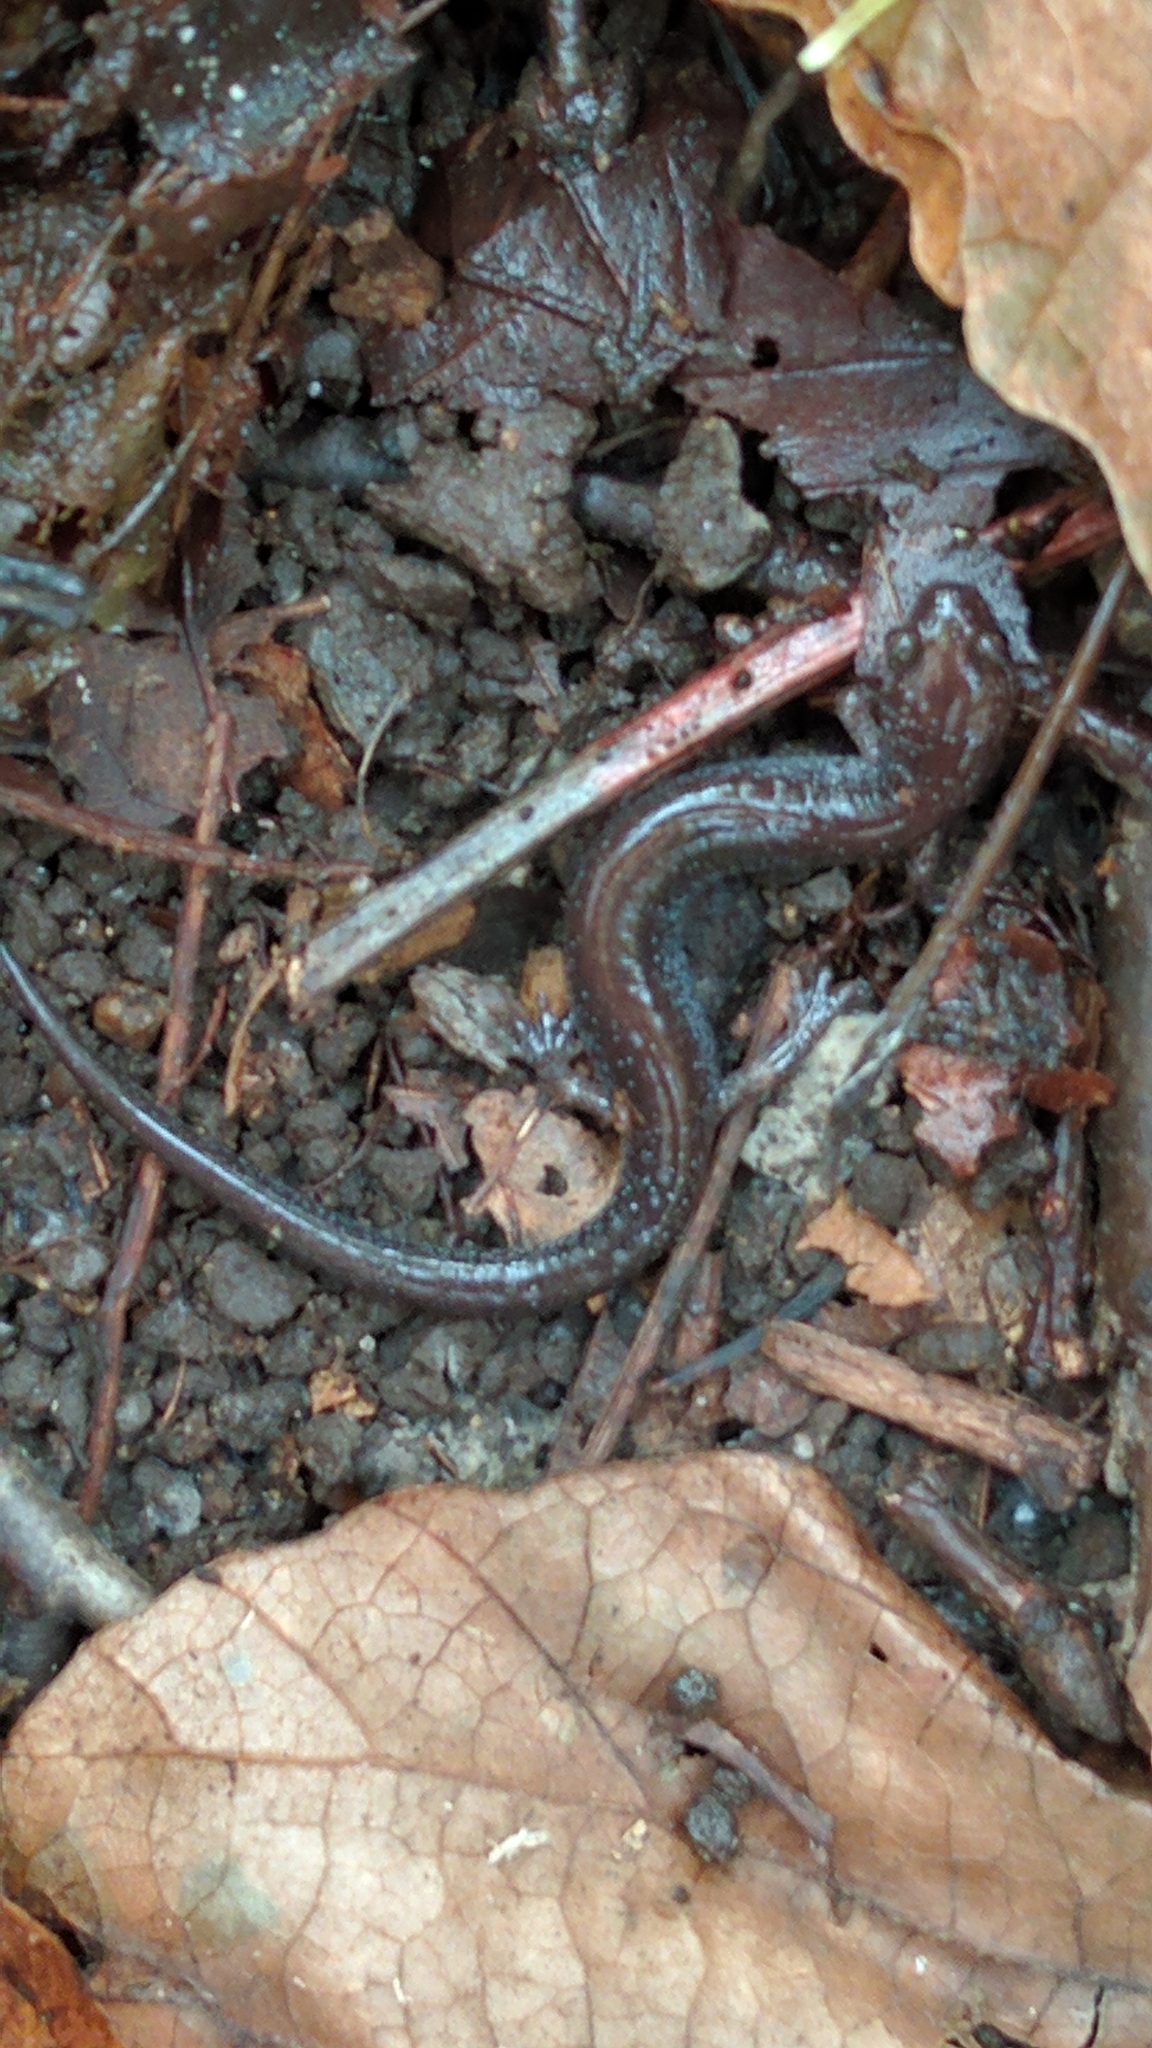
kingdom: Animalia
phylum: Chordata
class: Amphibia
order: Caudata
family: Plethodontidae
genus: Plethodon
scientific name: Plethodon cinereus
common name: Redback salamander
